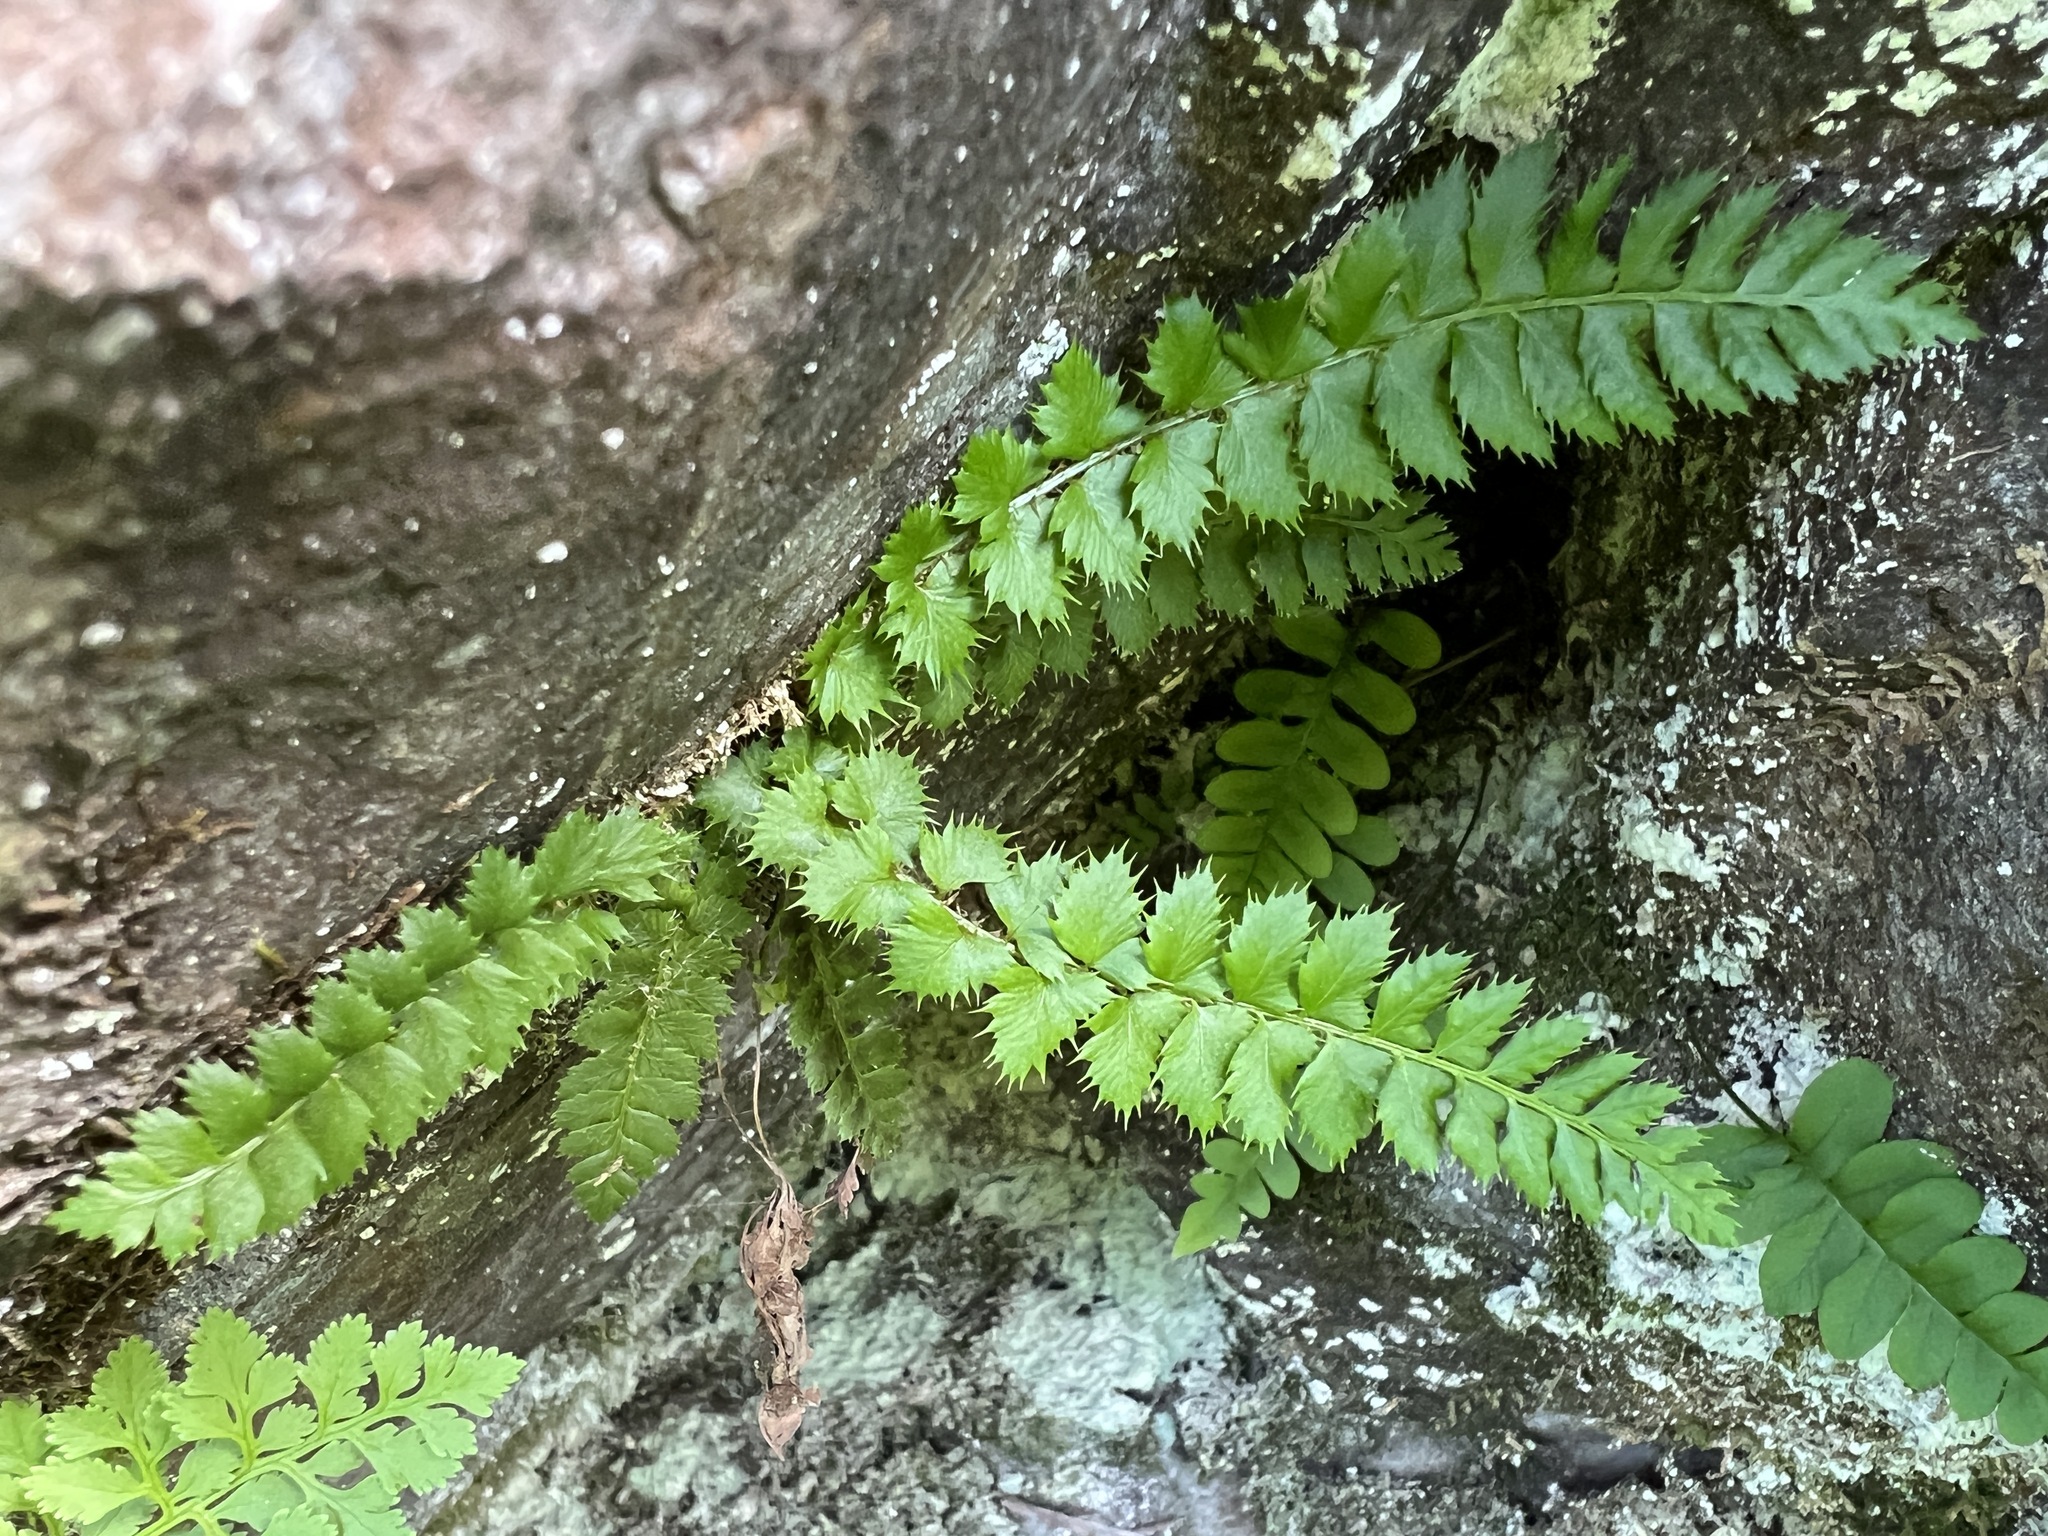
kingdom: Plantae
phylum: Tracheophyta
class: Polypodiopsida
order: Polypodiales
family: Dryopteridaceae
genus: Polystichum
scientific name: Polystichum lonchitis
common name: Holly fern
